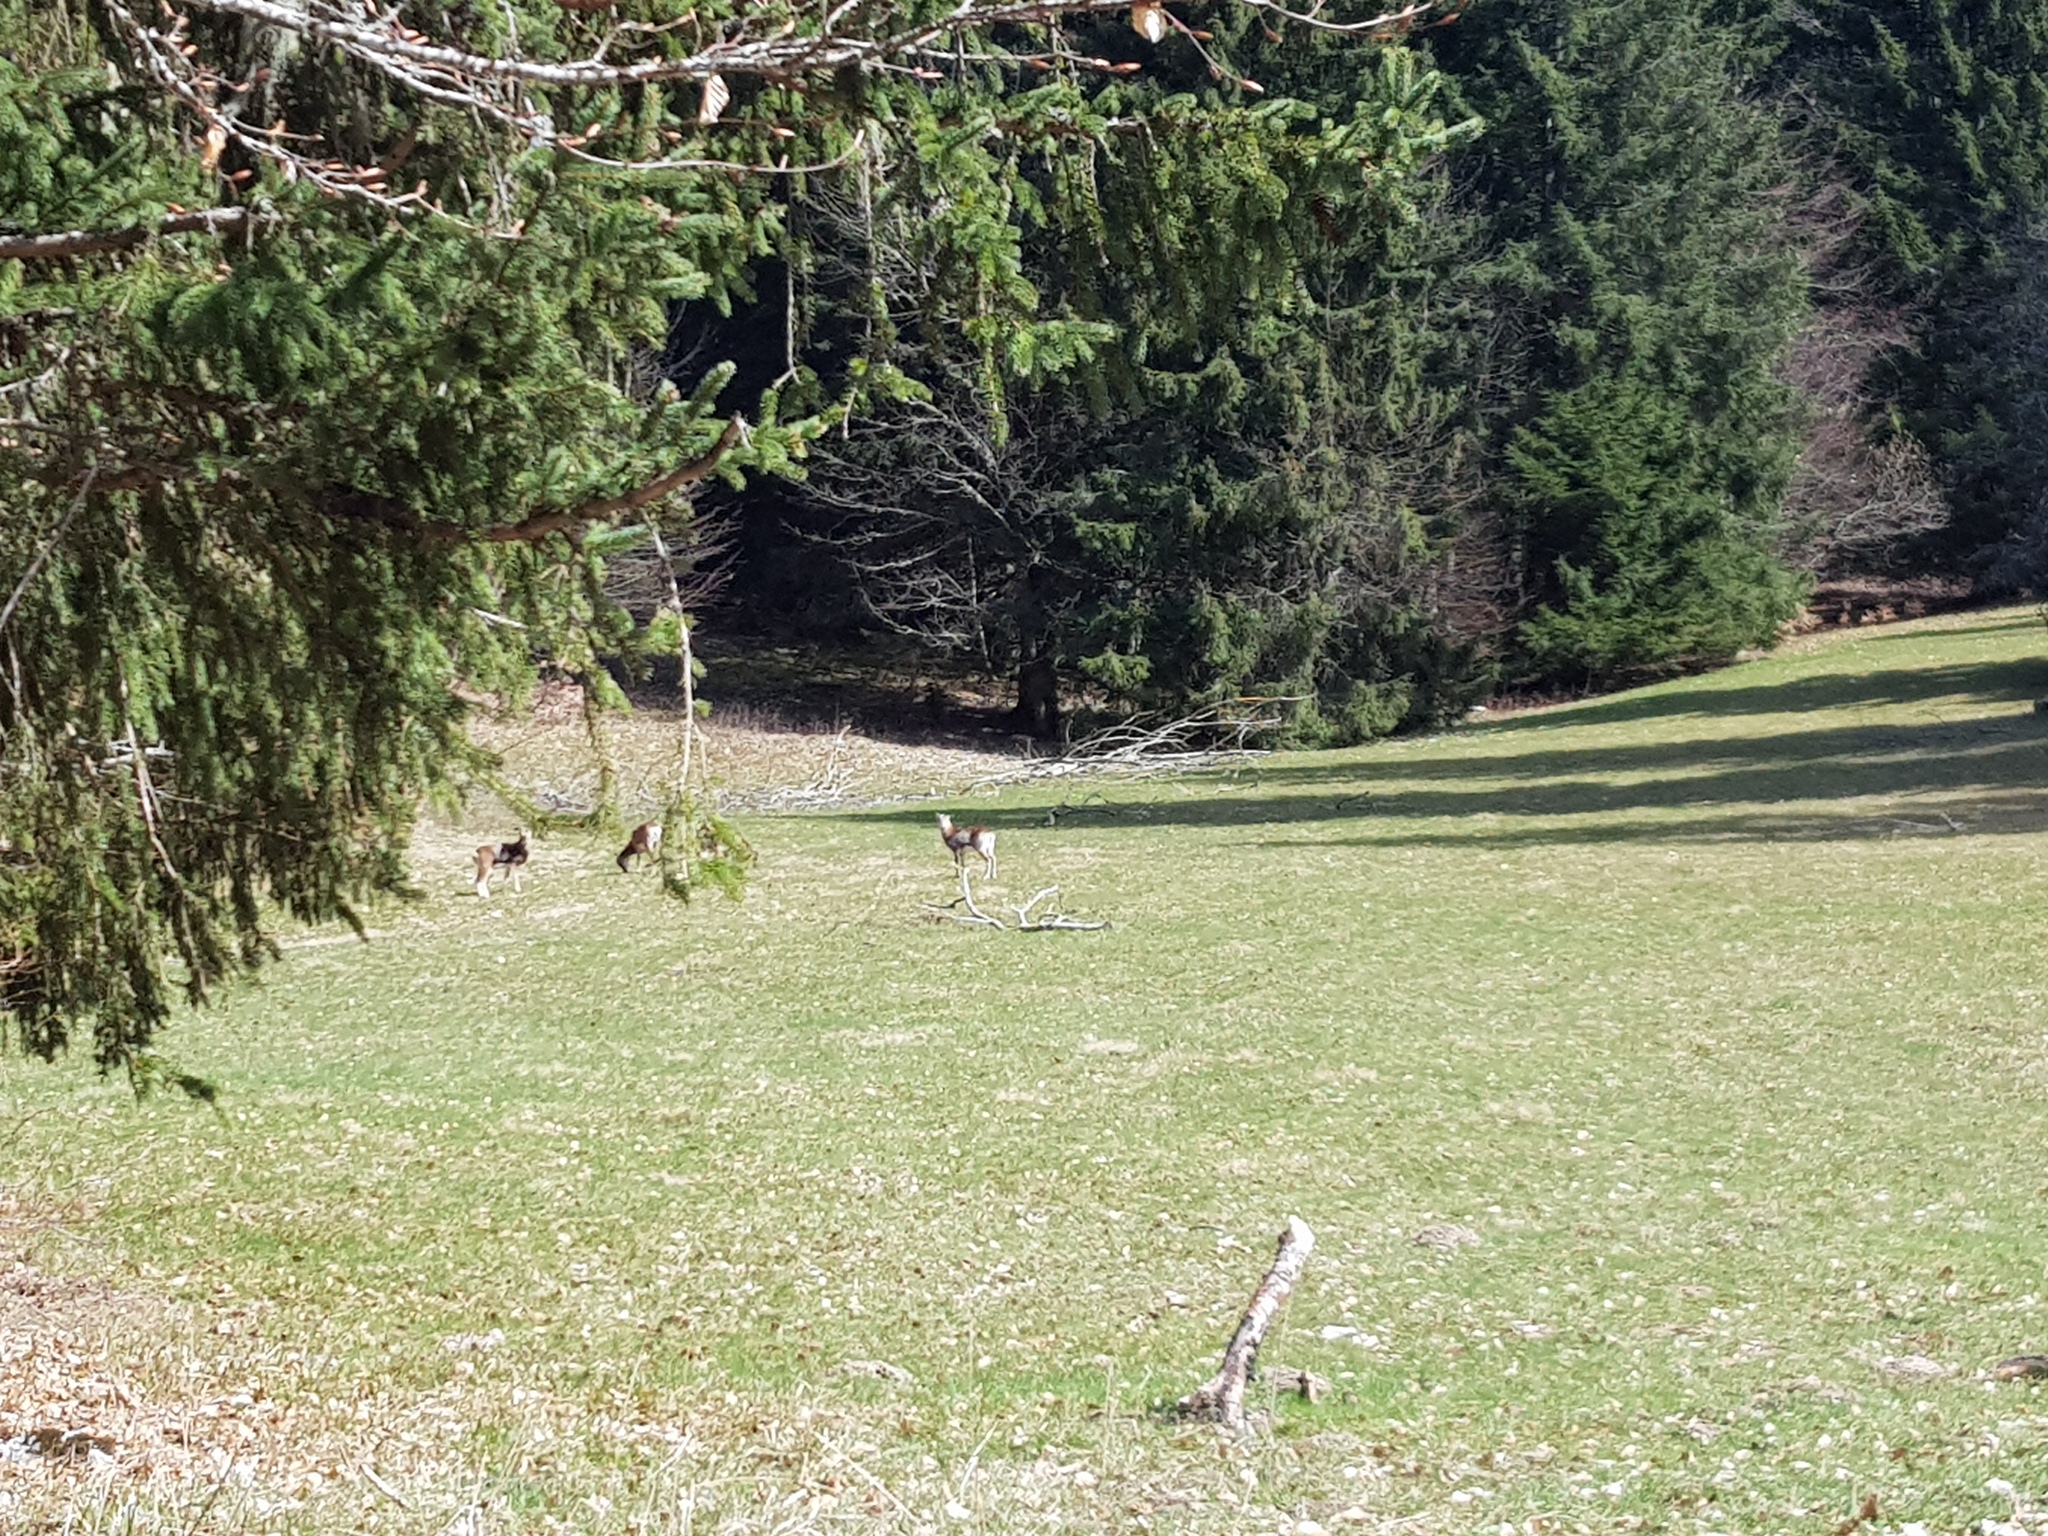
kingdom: Animalia
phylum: Chordata
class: Mammalia
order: Artiodactyla
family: Bovidae
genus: Ovis
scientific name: Ovis aries
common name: Domestic sheep
